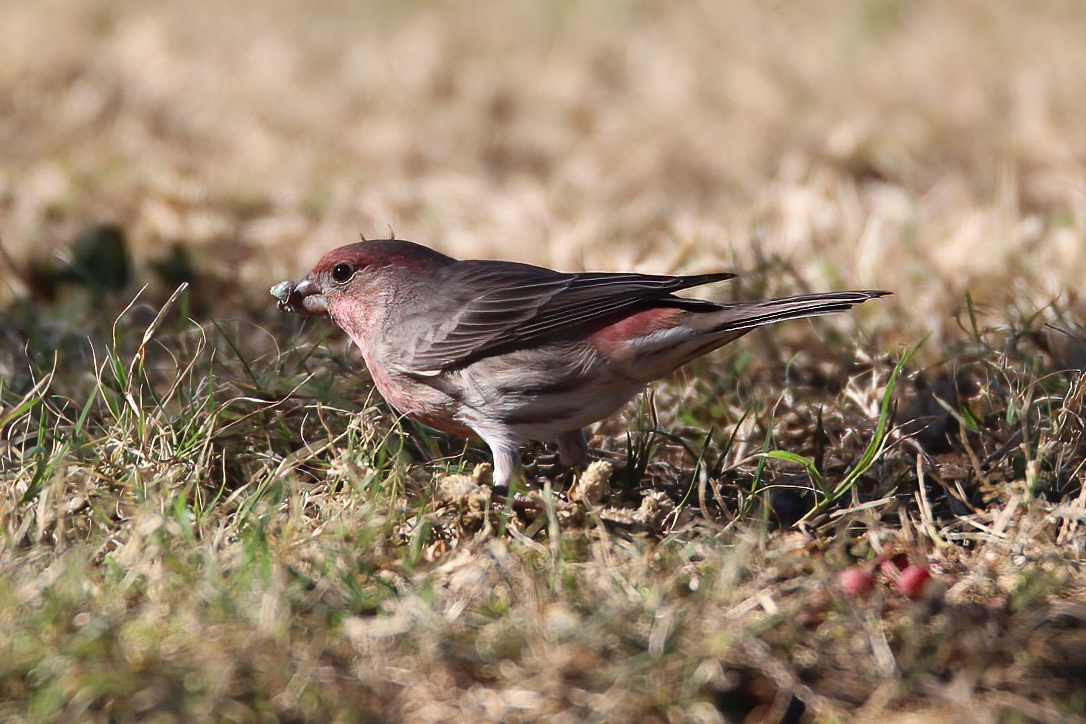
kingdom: Animalia
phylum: Chordata
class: Aves
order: Passeriformes
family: Fringillidae
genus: Haemorhous
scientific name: Haemorhous mexicanus
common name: House finch
